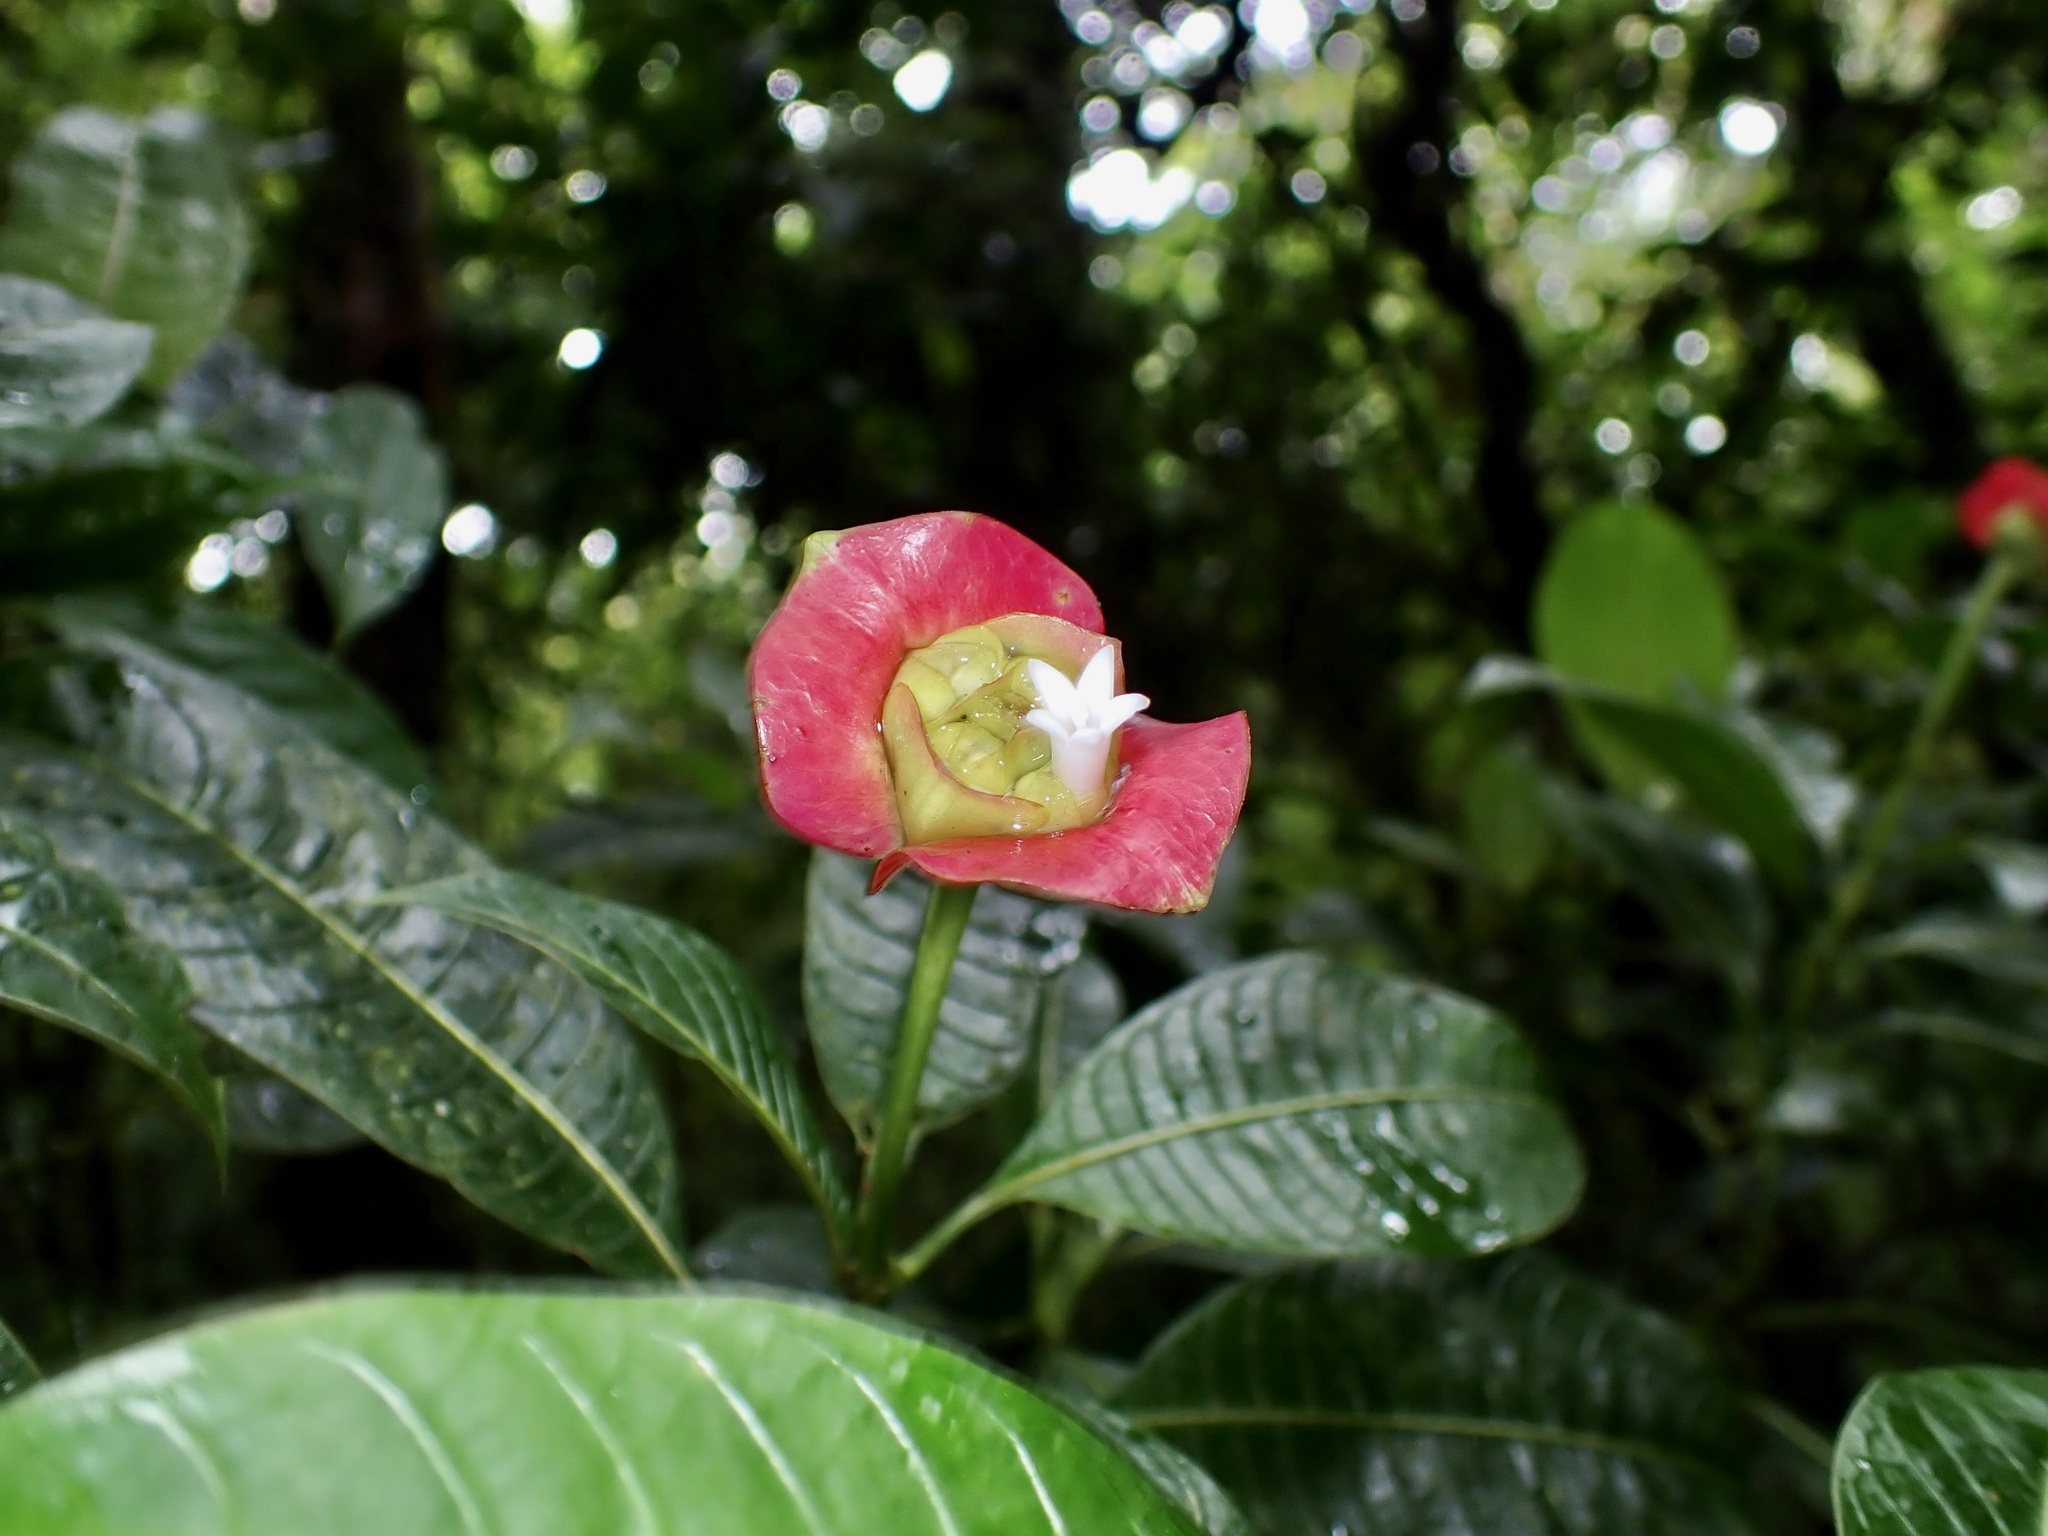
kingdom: Plantae
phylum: Tracheophyta
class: Magnoliopsida
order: Gentianales
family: Rubiaceae
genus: Palicourea
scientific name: Palicourea elata
